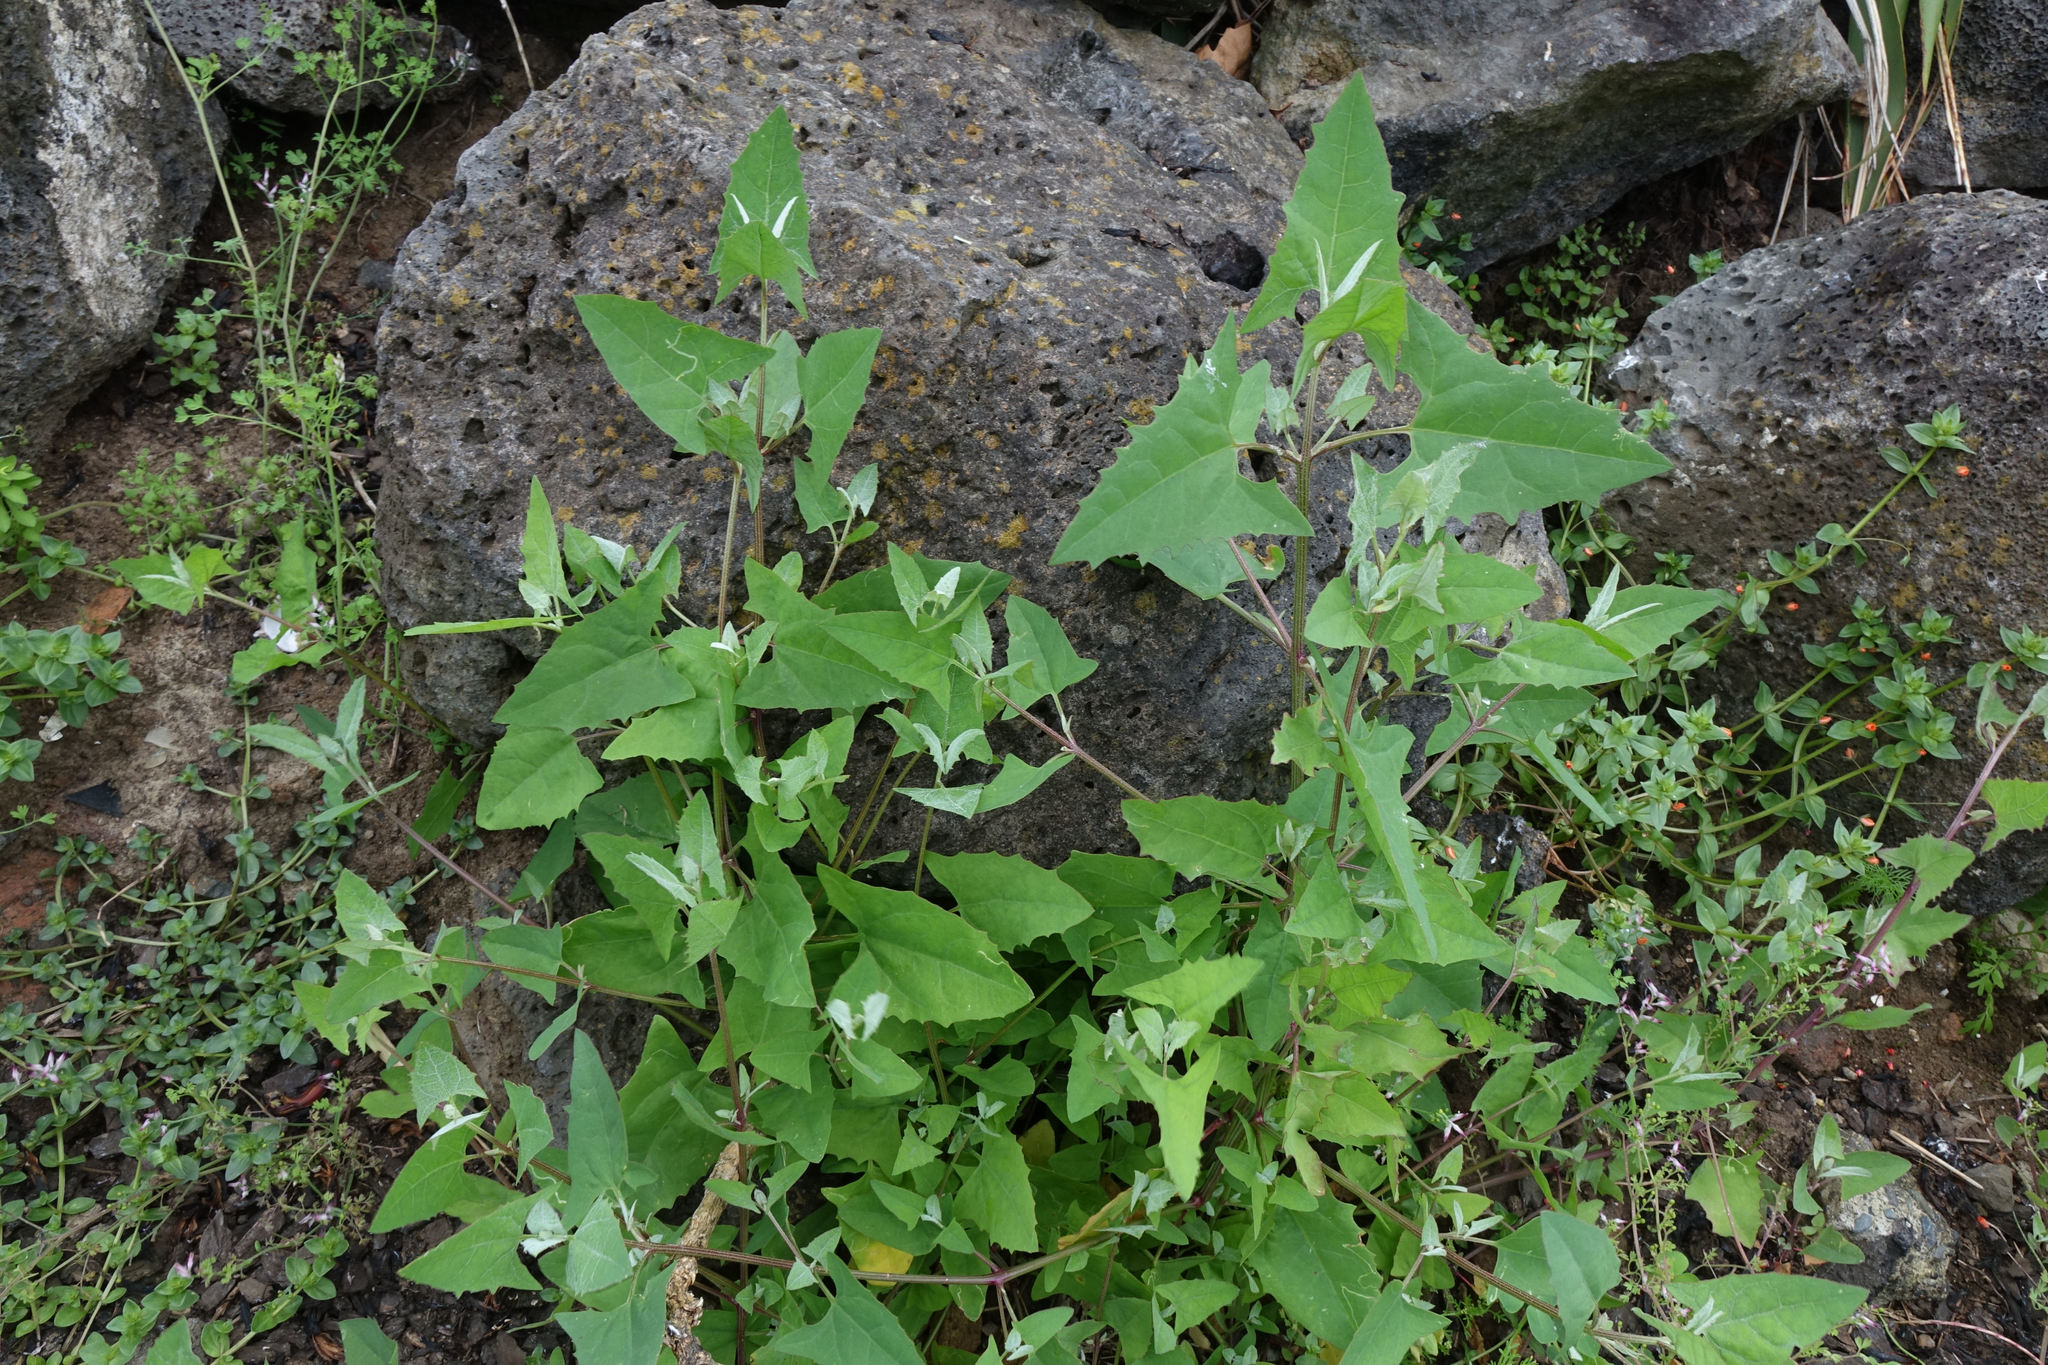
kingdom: Plantae
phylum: Tracheophyta
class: Magnoliopsida
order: Caryophyllales
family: Amaranthaceae
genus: Atriplex
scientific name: Atriplex prostrata
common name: Spear-leaved orache
